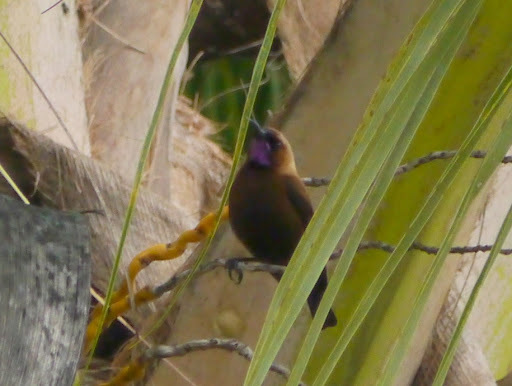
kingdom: Animalia
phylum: Chordata
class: Aves
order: Passeriformes
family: Nectariniidae
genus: Chalcomitra
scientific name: Chalcomitra fuliginosa
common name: Carmelite sunbird
